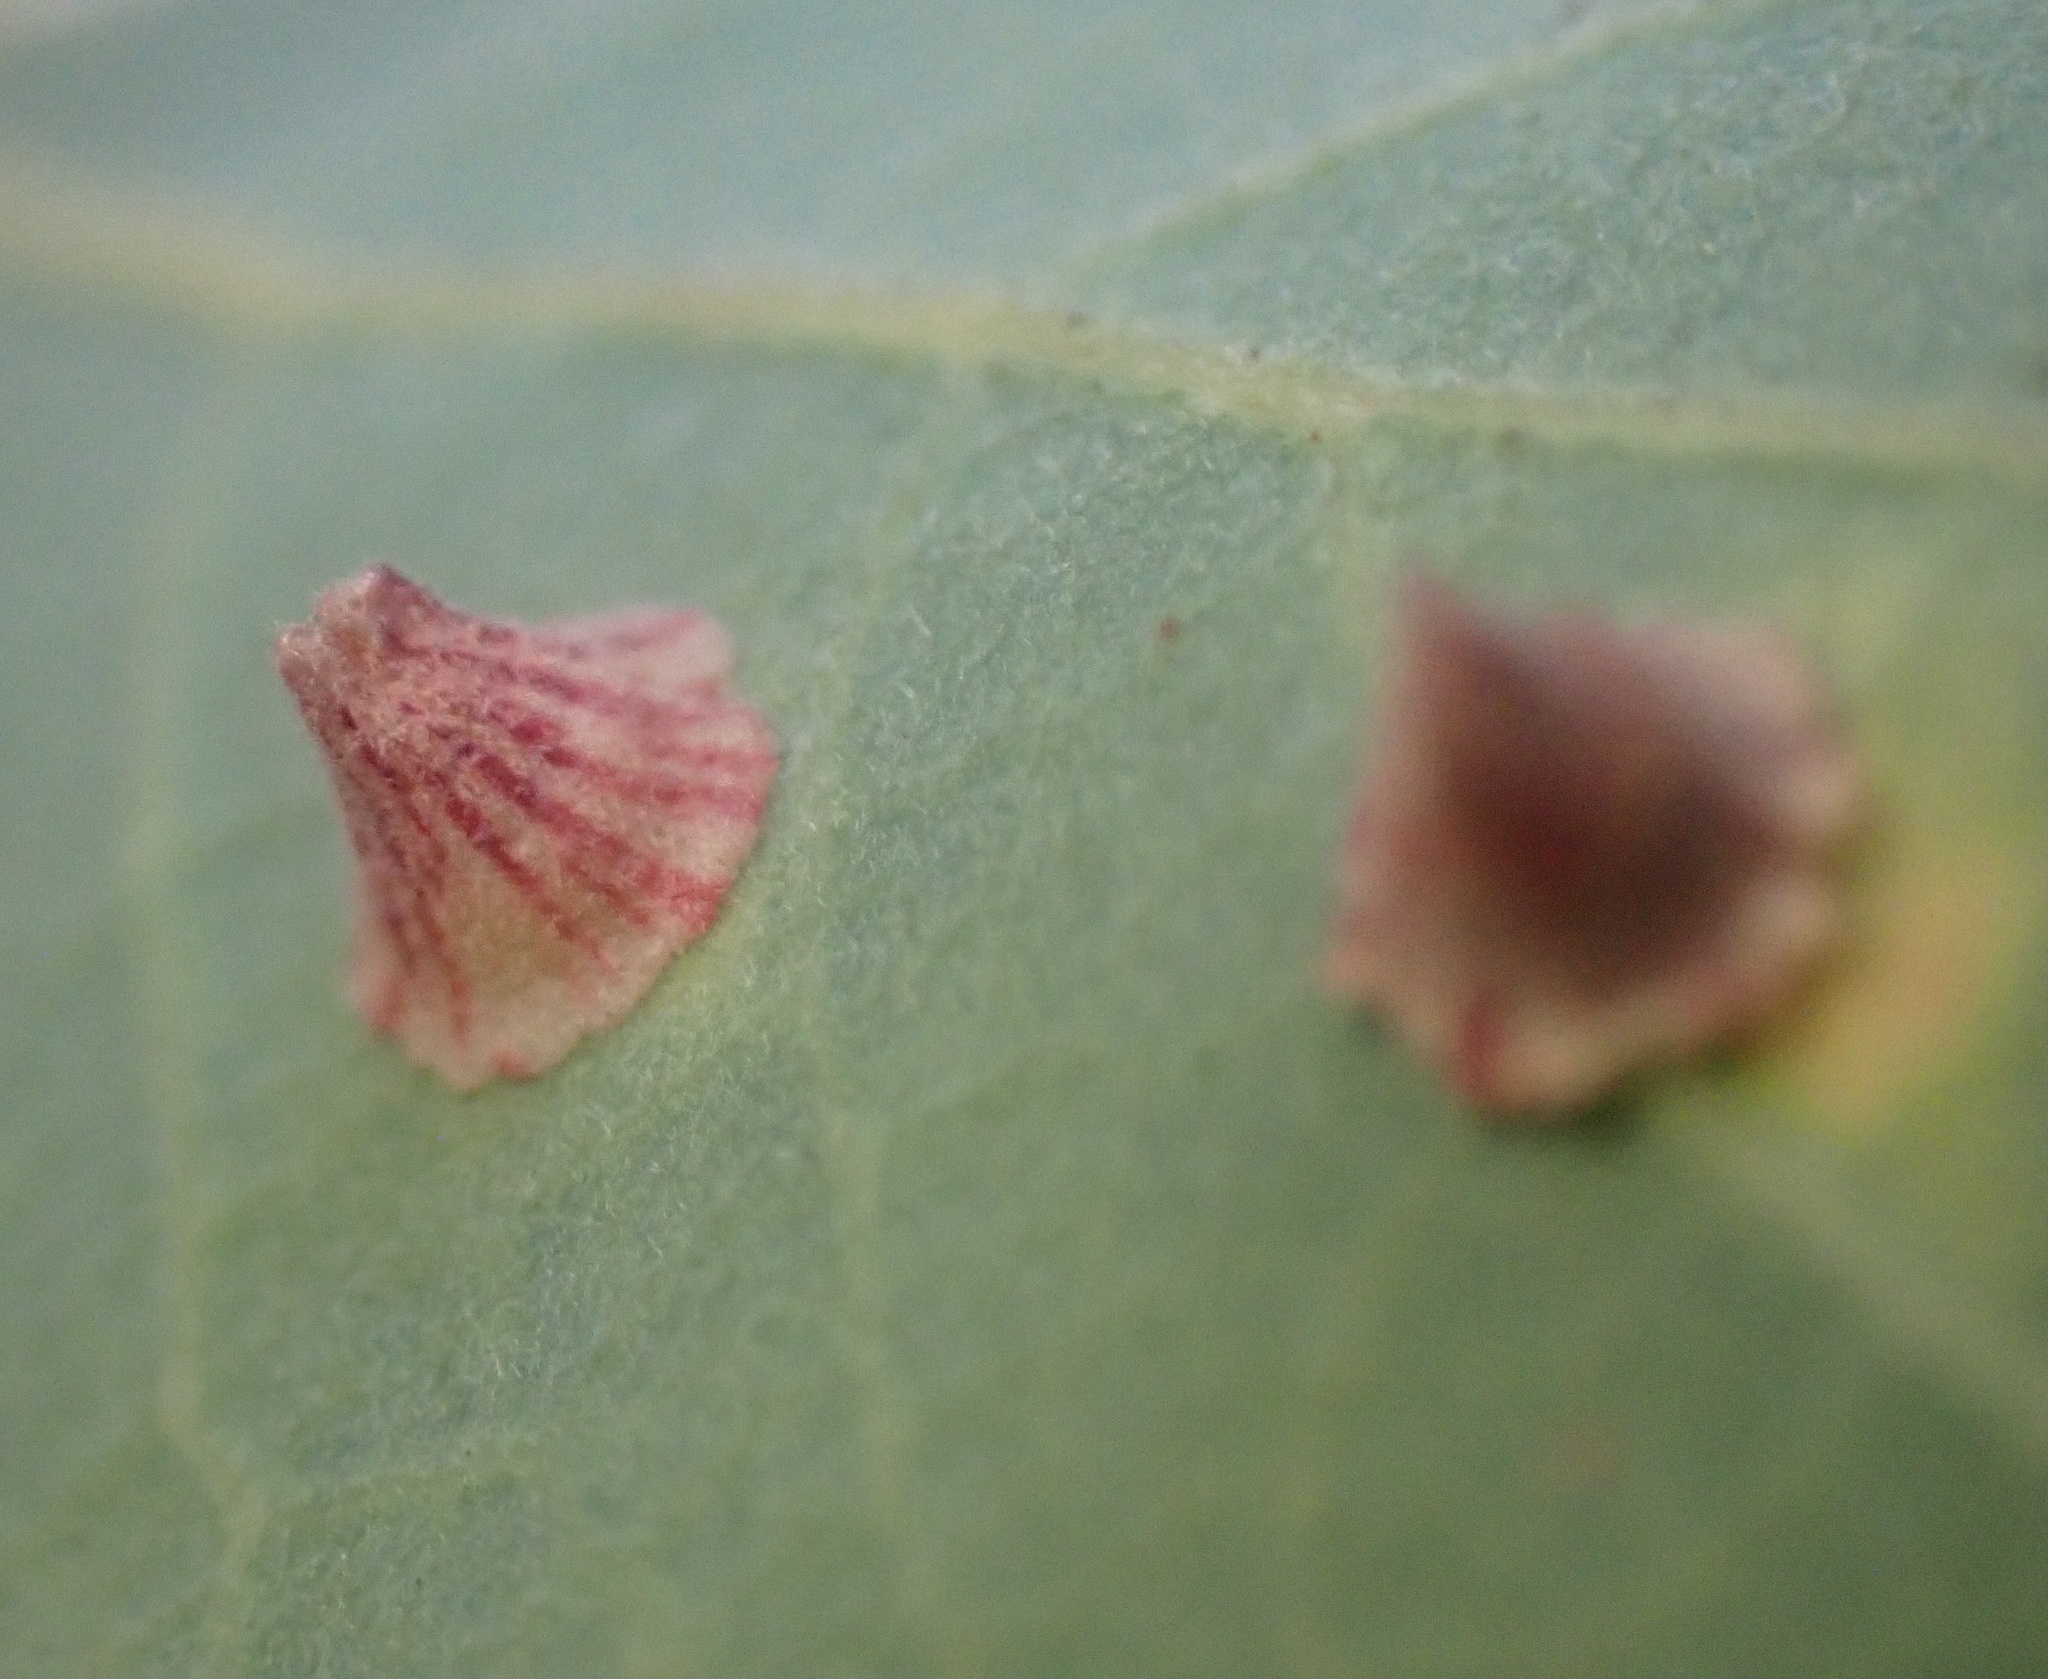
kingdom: Animalia
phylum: Arthropoda
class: Insecta
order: Hymenoptera
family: Cynipidae
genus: Andricus
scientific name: Andricus
